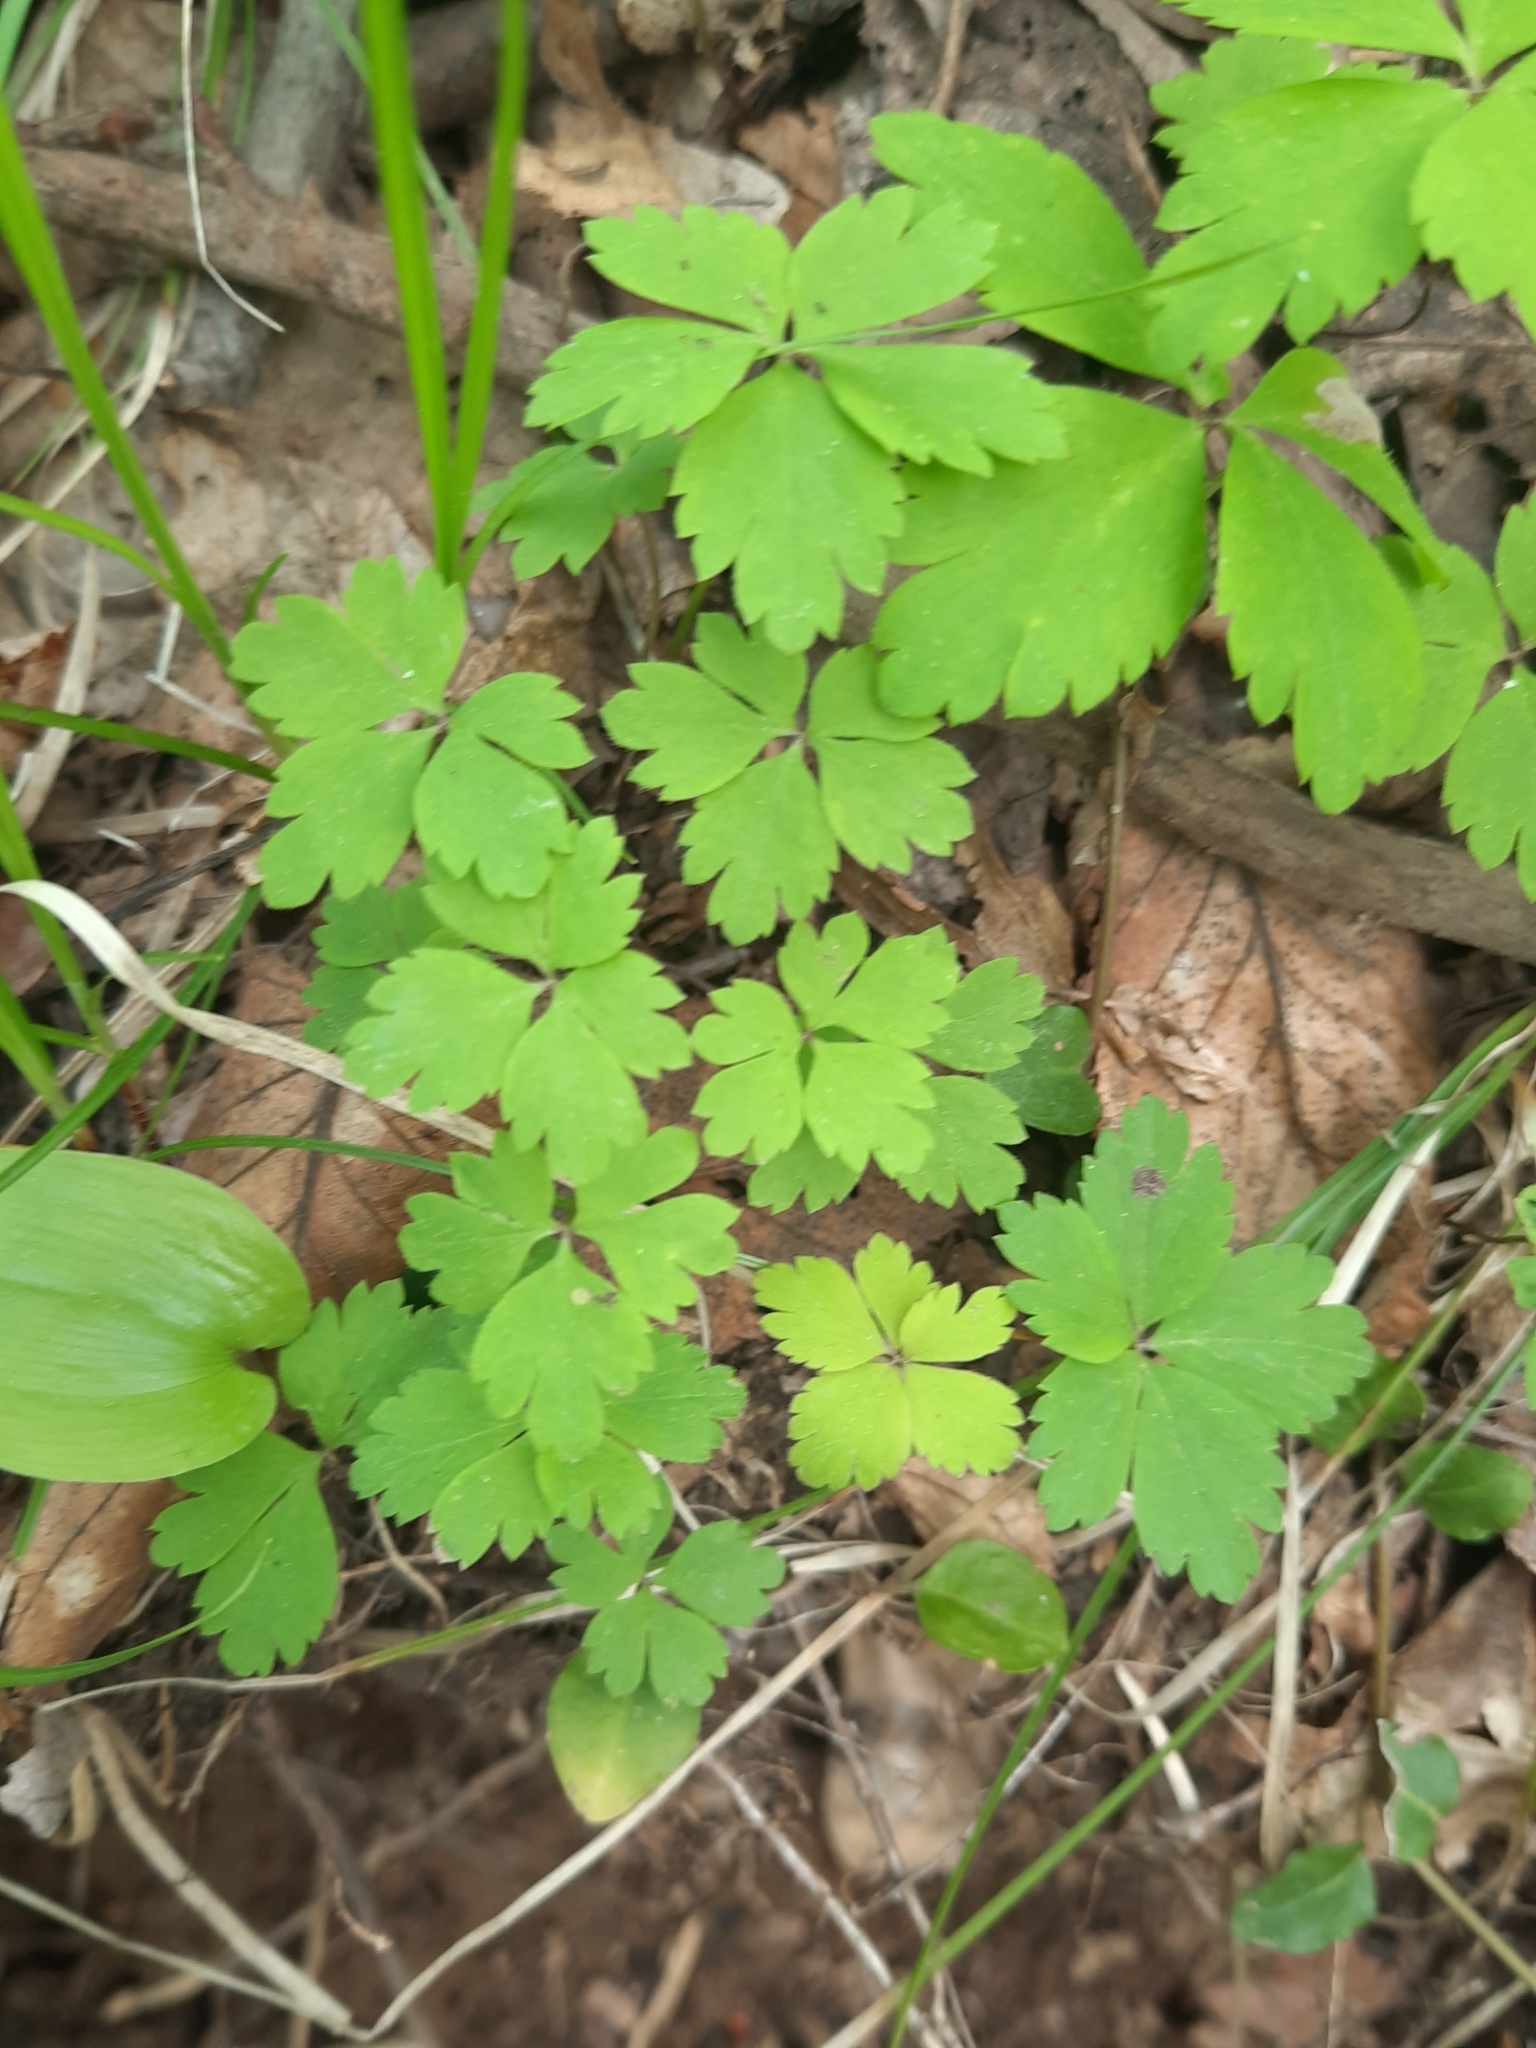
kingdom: Plantae
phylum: Tracheophyta
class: Magnoliopsida
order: Ranunculales
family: Ranunculaceae
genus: Anemone
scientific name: Anemone quinquefolia
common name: Wood anemone
